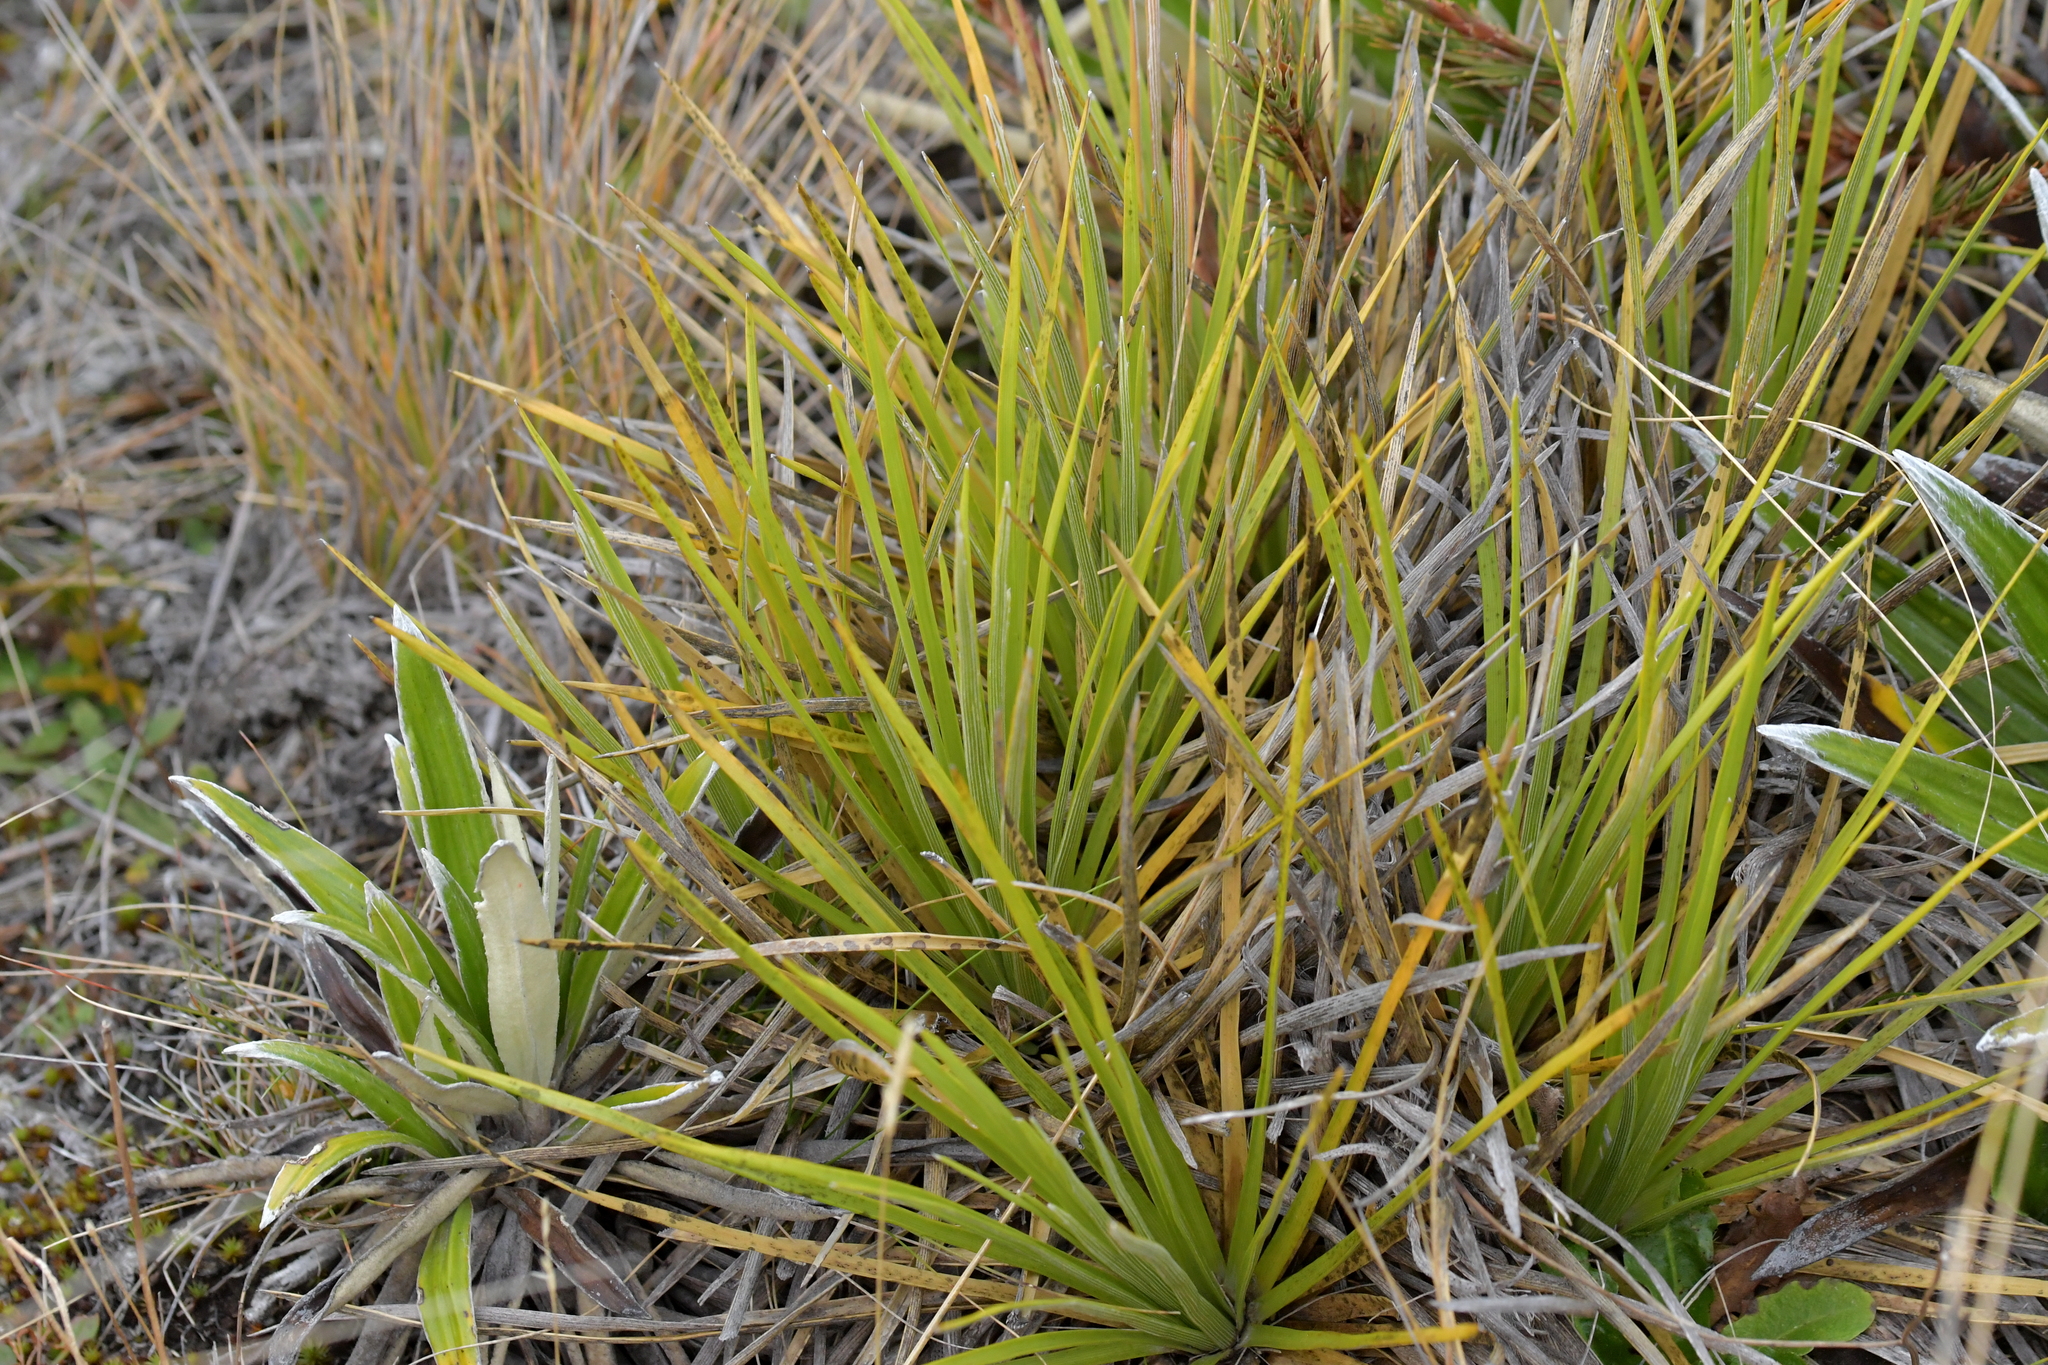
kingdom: Plantae
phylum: Tracheophyta
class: Magnoliopsida
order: Asterales
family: Asteraceae
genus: Celmisia
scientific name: Celmisia lyallii
